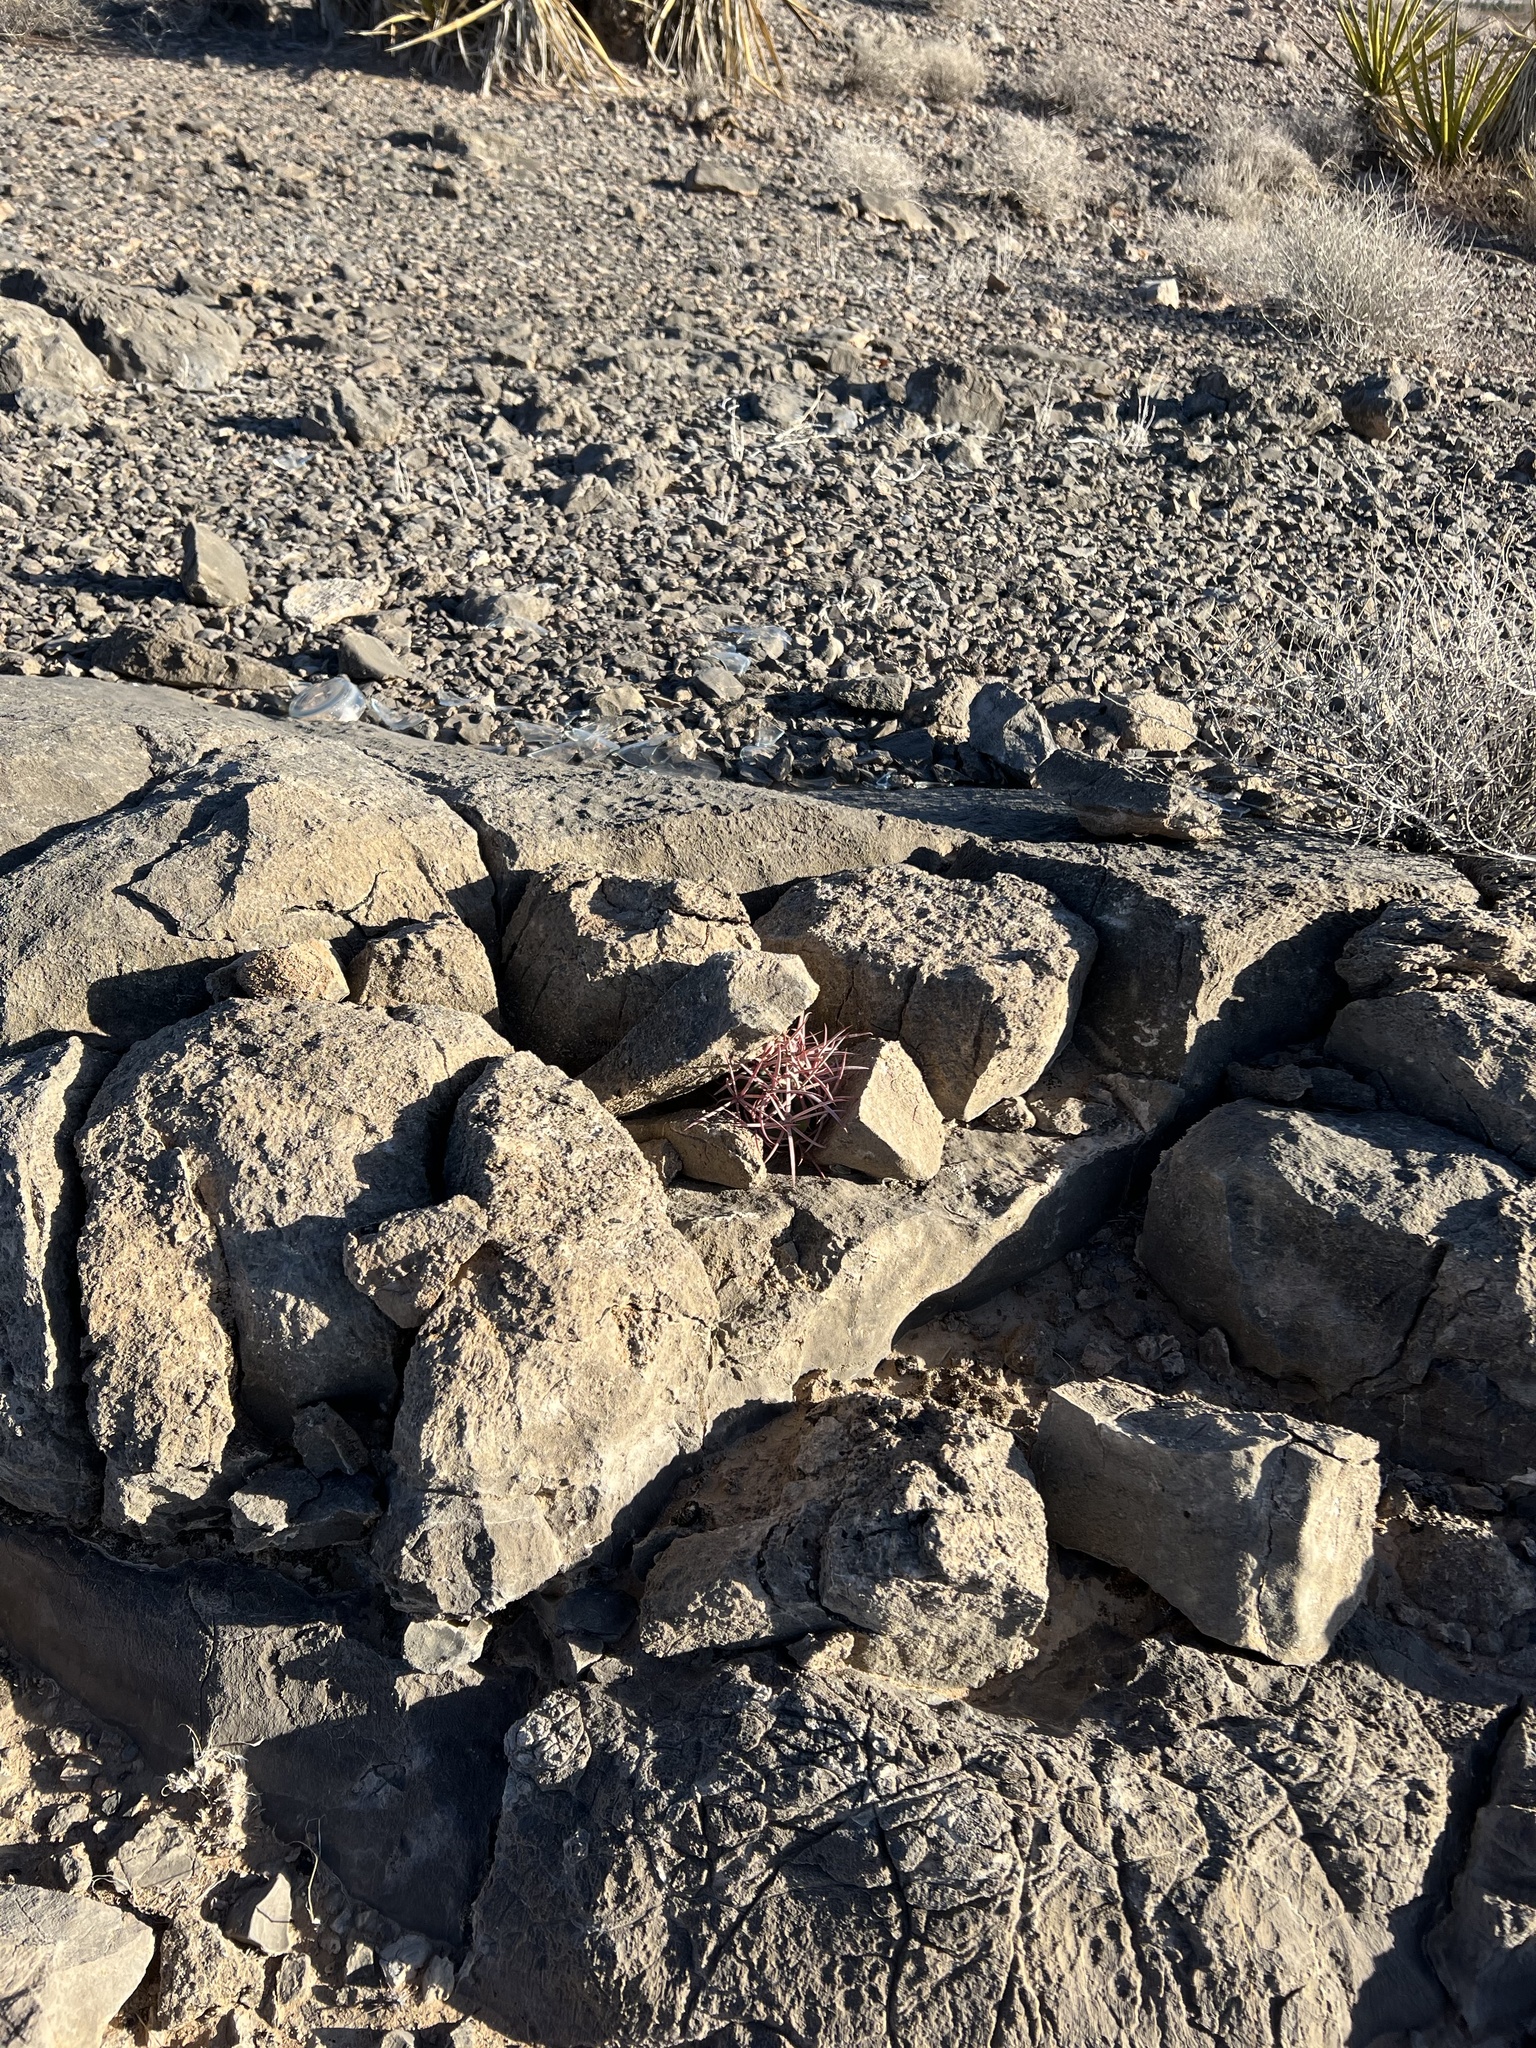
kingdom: Plantae
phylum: Tracheophyta
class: Magnoliopsida
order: Caryophyllales
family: Cactaceae
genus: Echinocactus
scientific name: Echinocactus polycephalus
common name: Cottontop cactus
